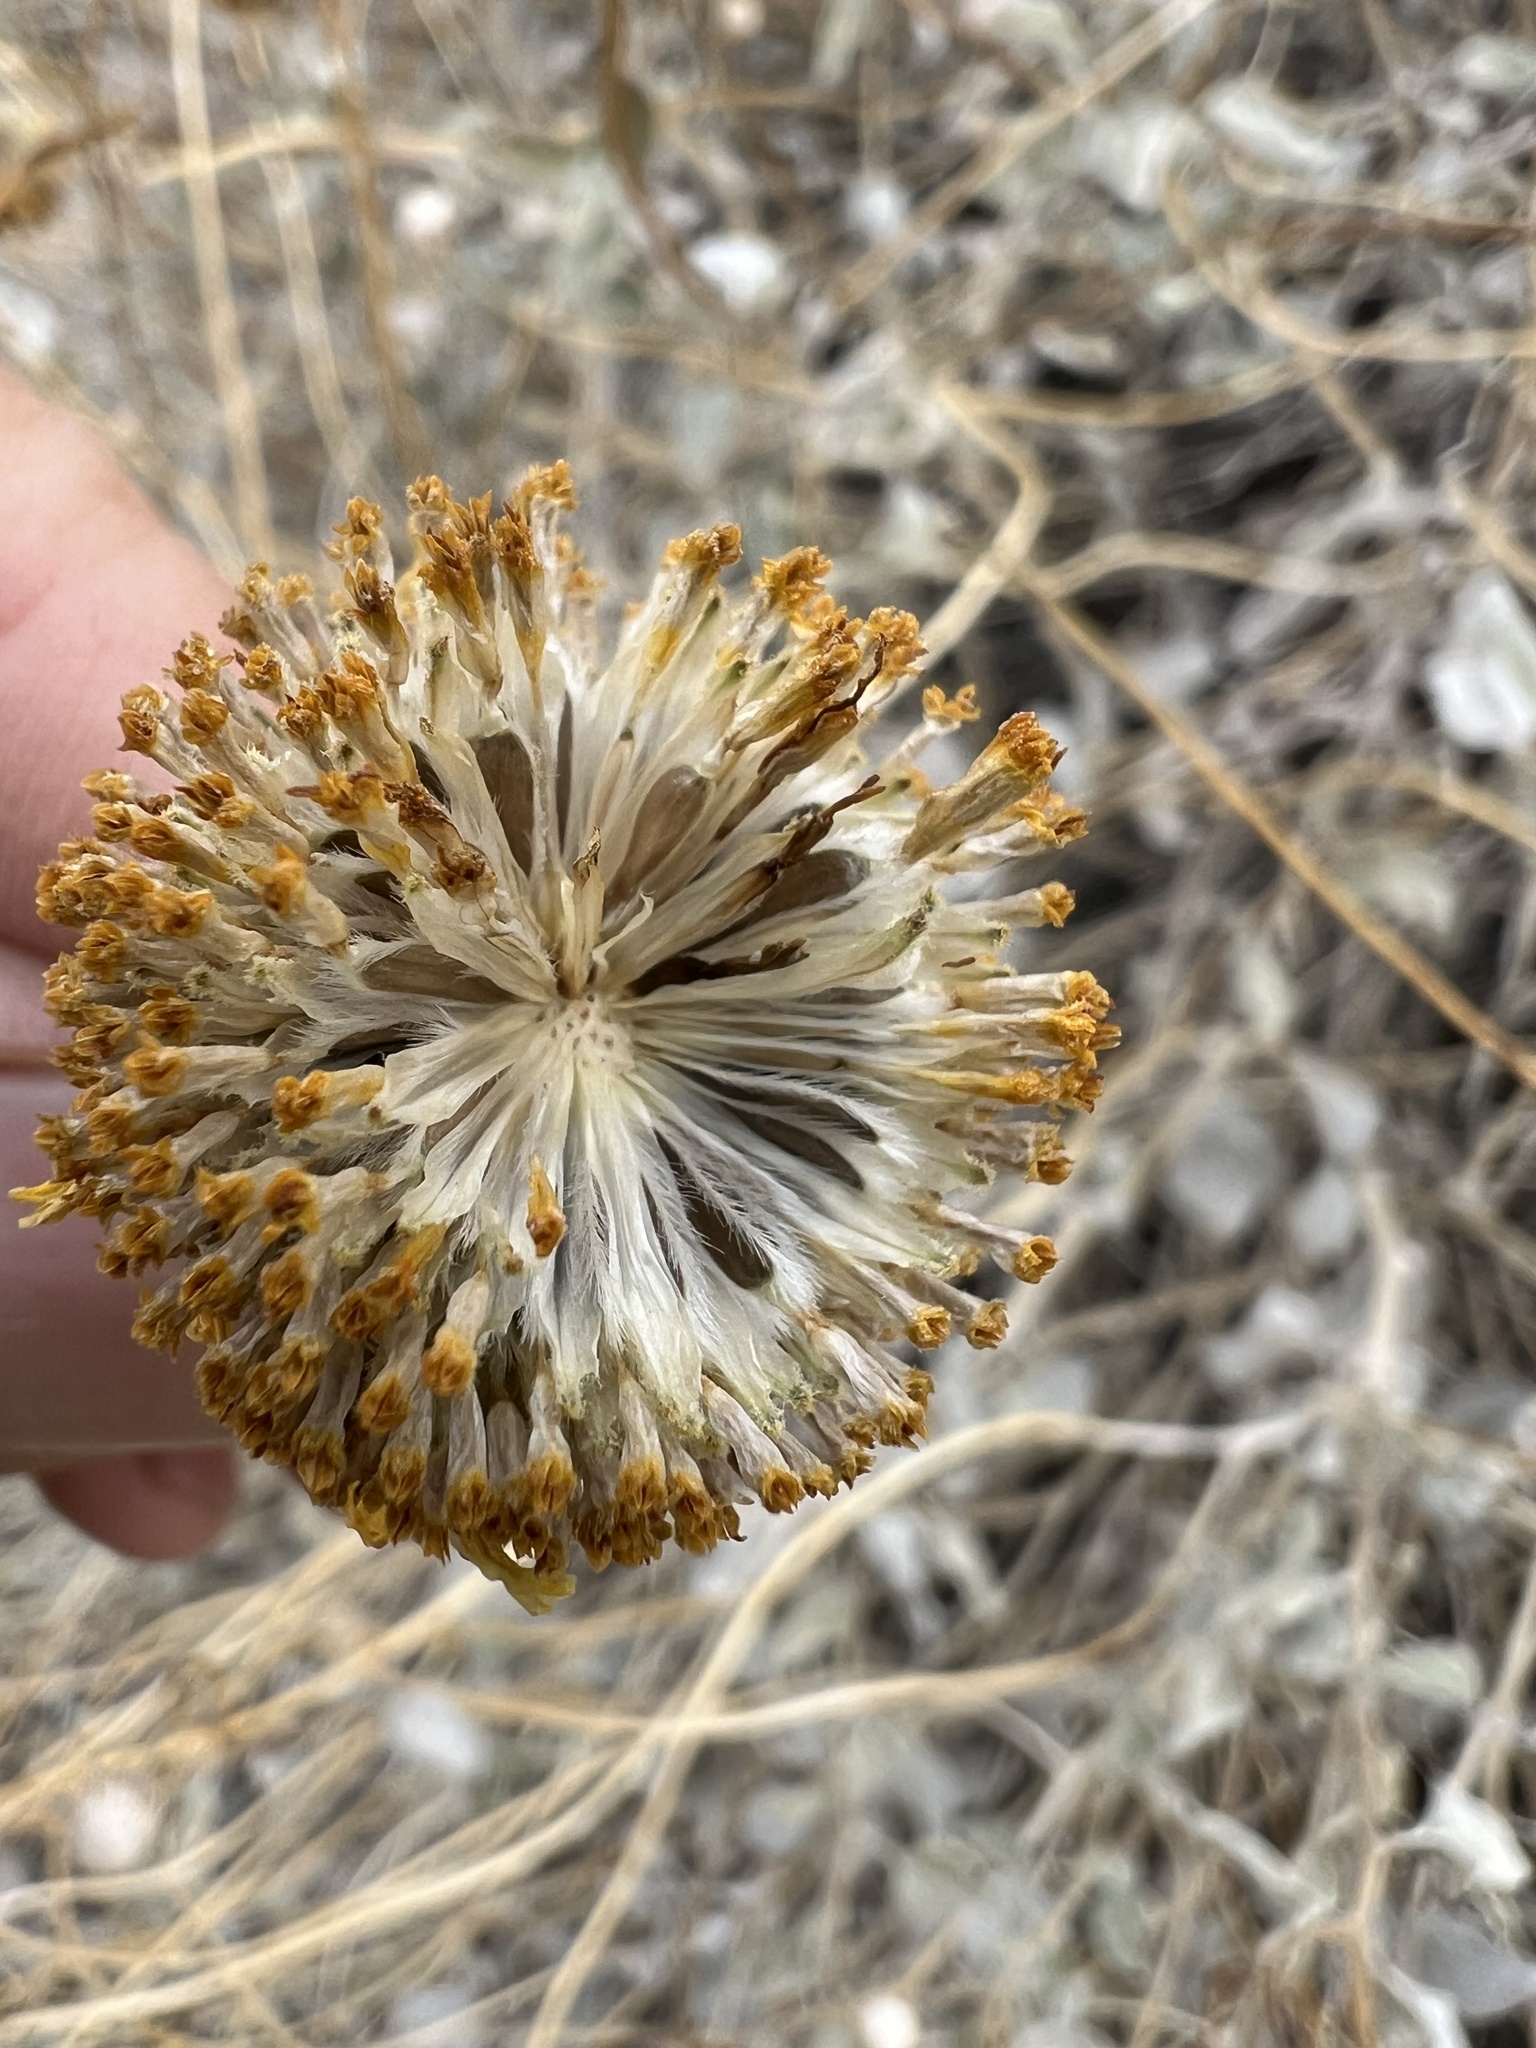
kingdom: Plantae
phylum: Tracheophyta
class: Magnoliopsida
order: Asterales
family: Asteraceae
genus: Encelia
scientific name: Encelia actoni
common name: Acton encelia
